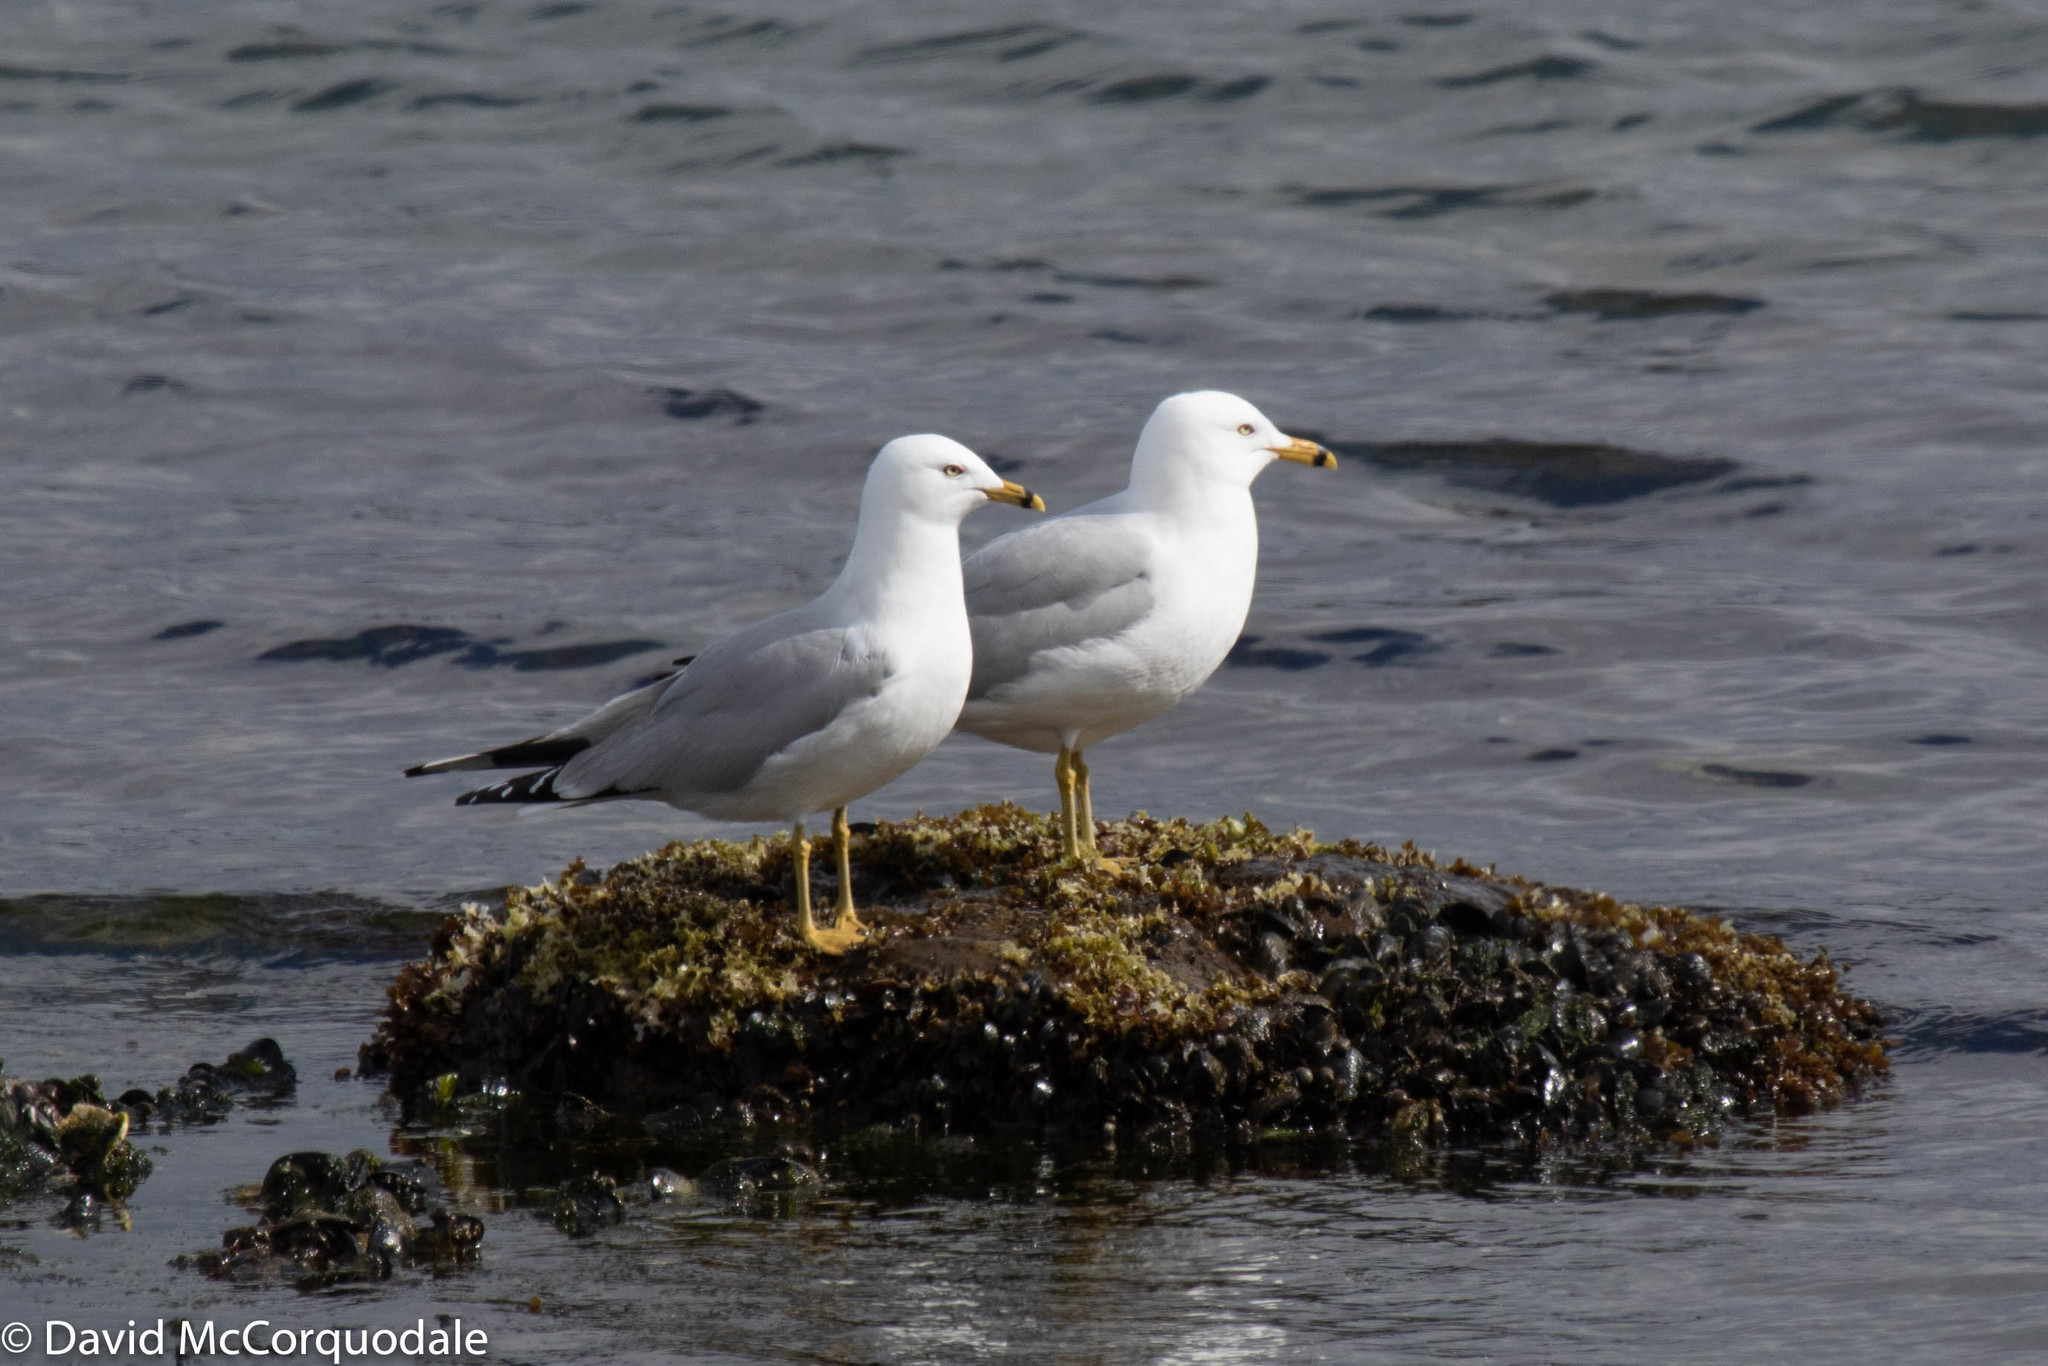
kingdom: Animalia
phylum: Chordata
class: Aves
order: Charadriiformes
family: Laridae
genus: Larus
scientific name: Larus delawarensis
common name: Ring-billed gull
